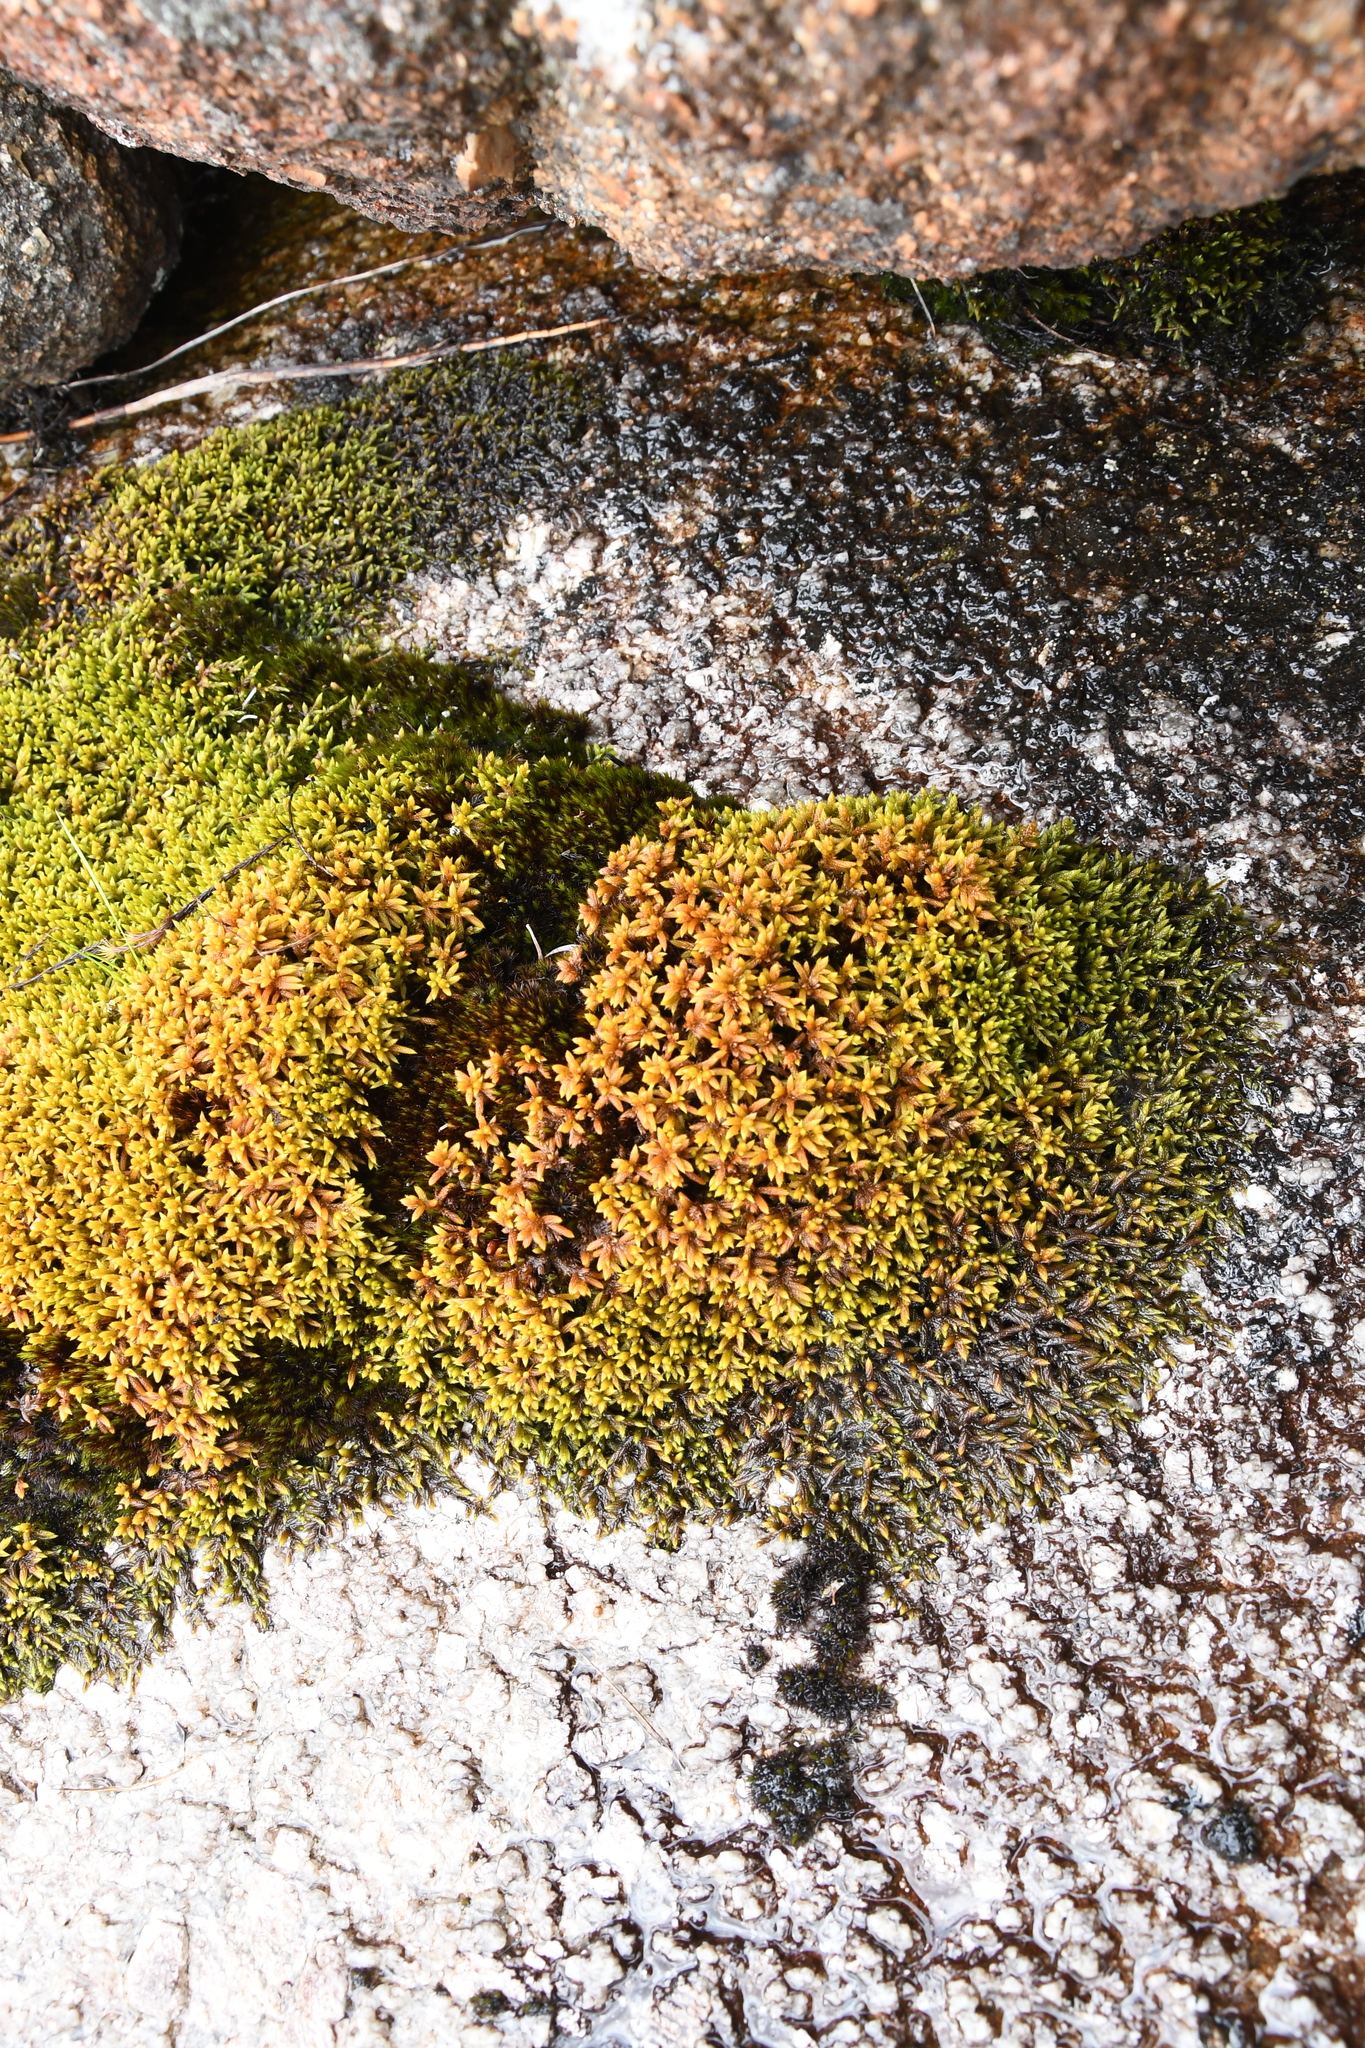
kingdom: Plantae
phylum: Bryophyta
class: Bryopsida
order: Hedwigiales
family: Hedwigiaceae
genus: Rhacocarpus
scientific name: Rhacocarpus purpurascens
